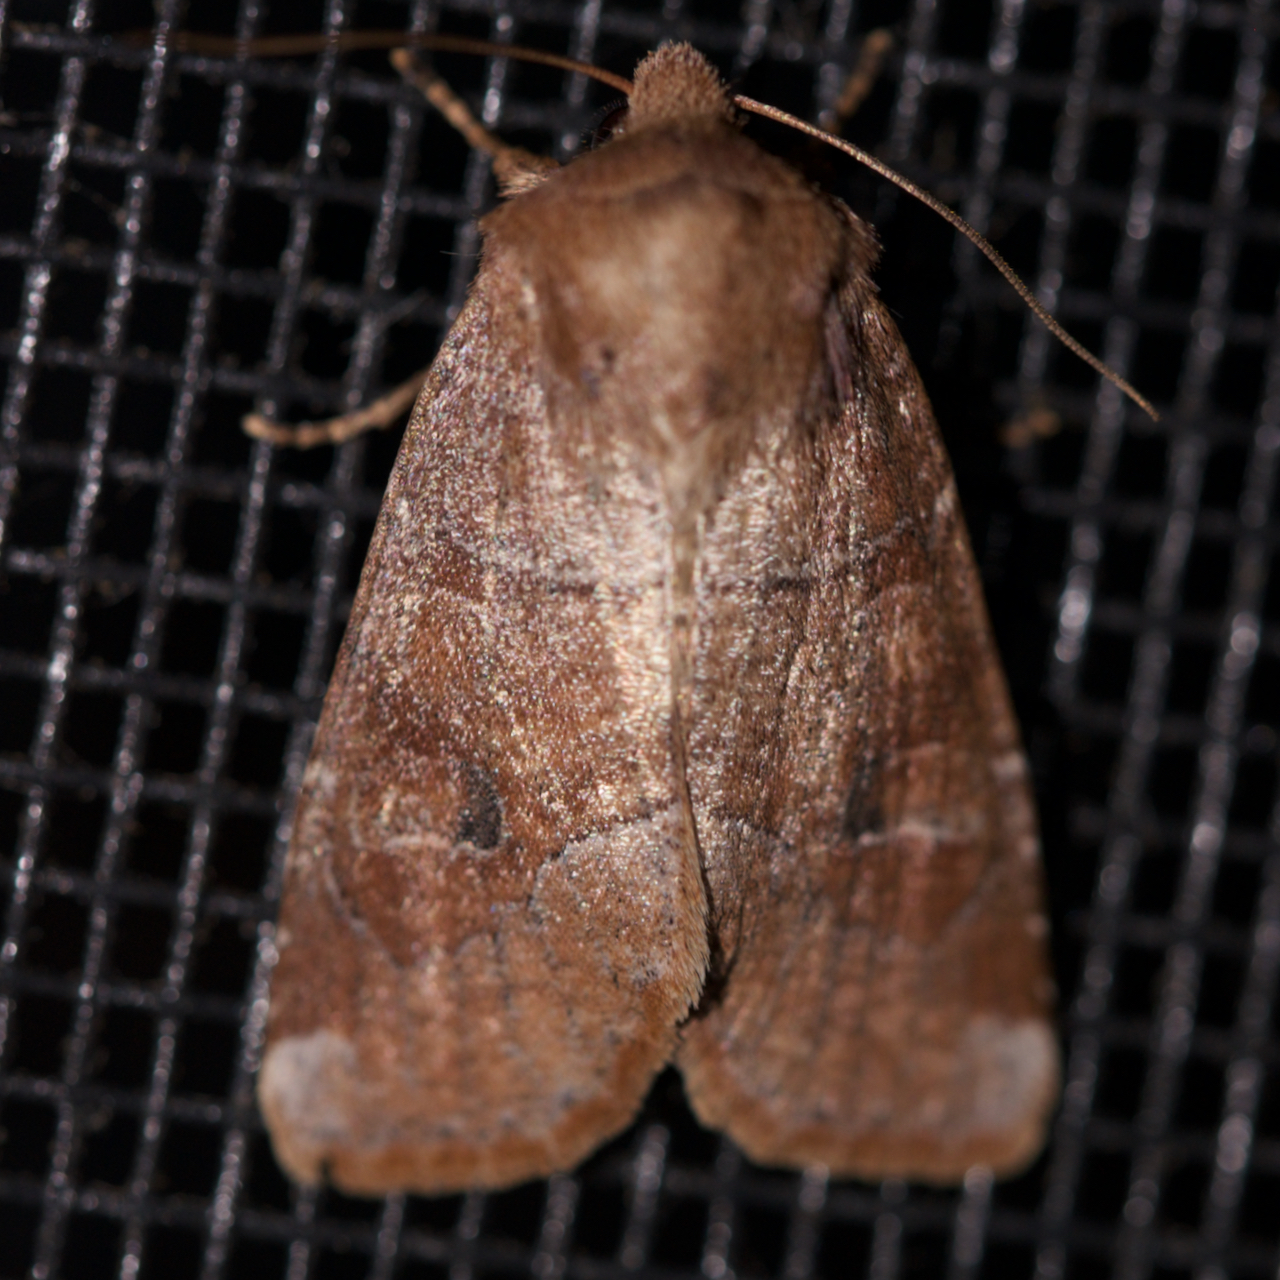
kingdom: Animalia
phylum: Arthropoda
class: Insecta
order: Lepidoptera
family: Noctuidae
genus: Crocigrapha
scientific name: Crocigrapha normani
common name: Norman's quaker
